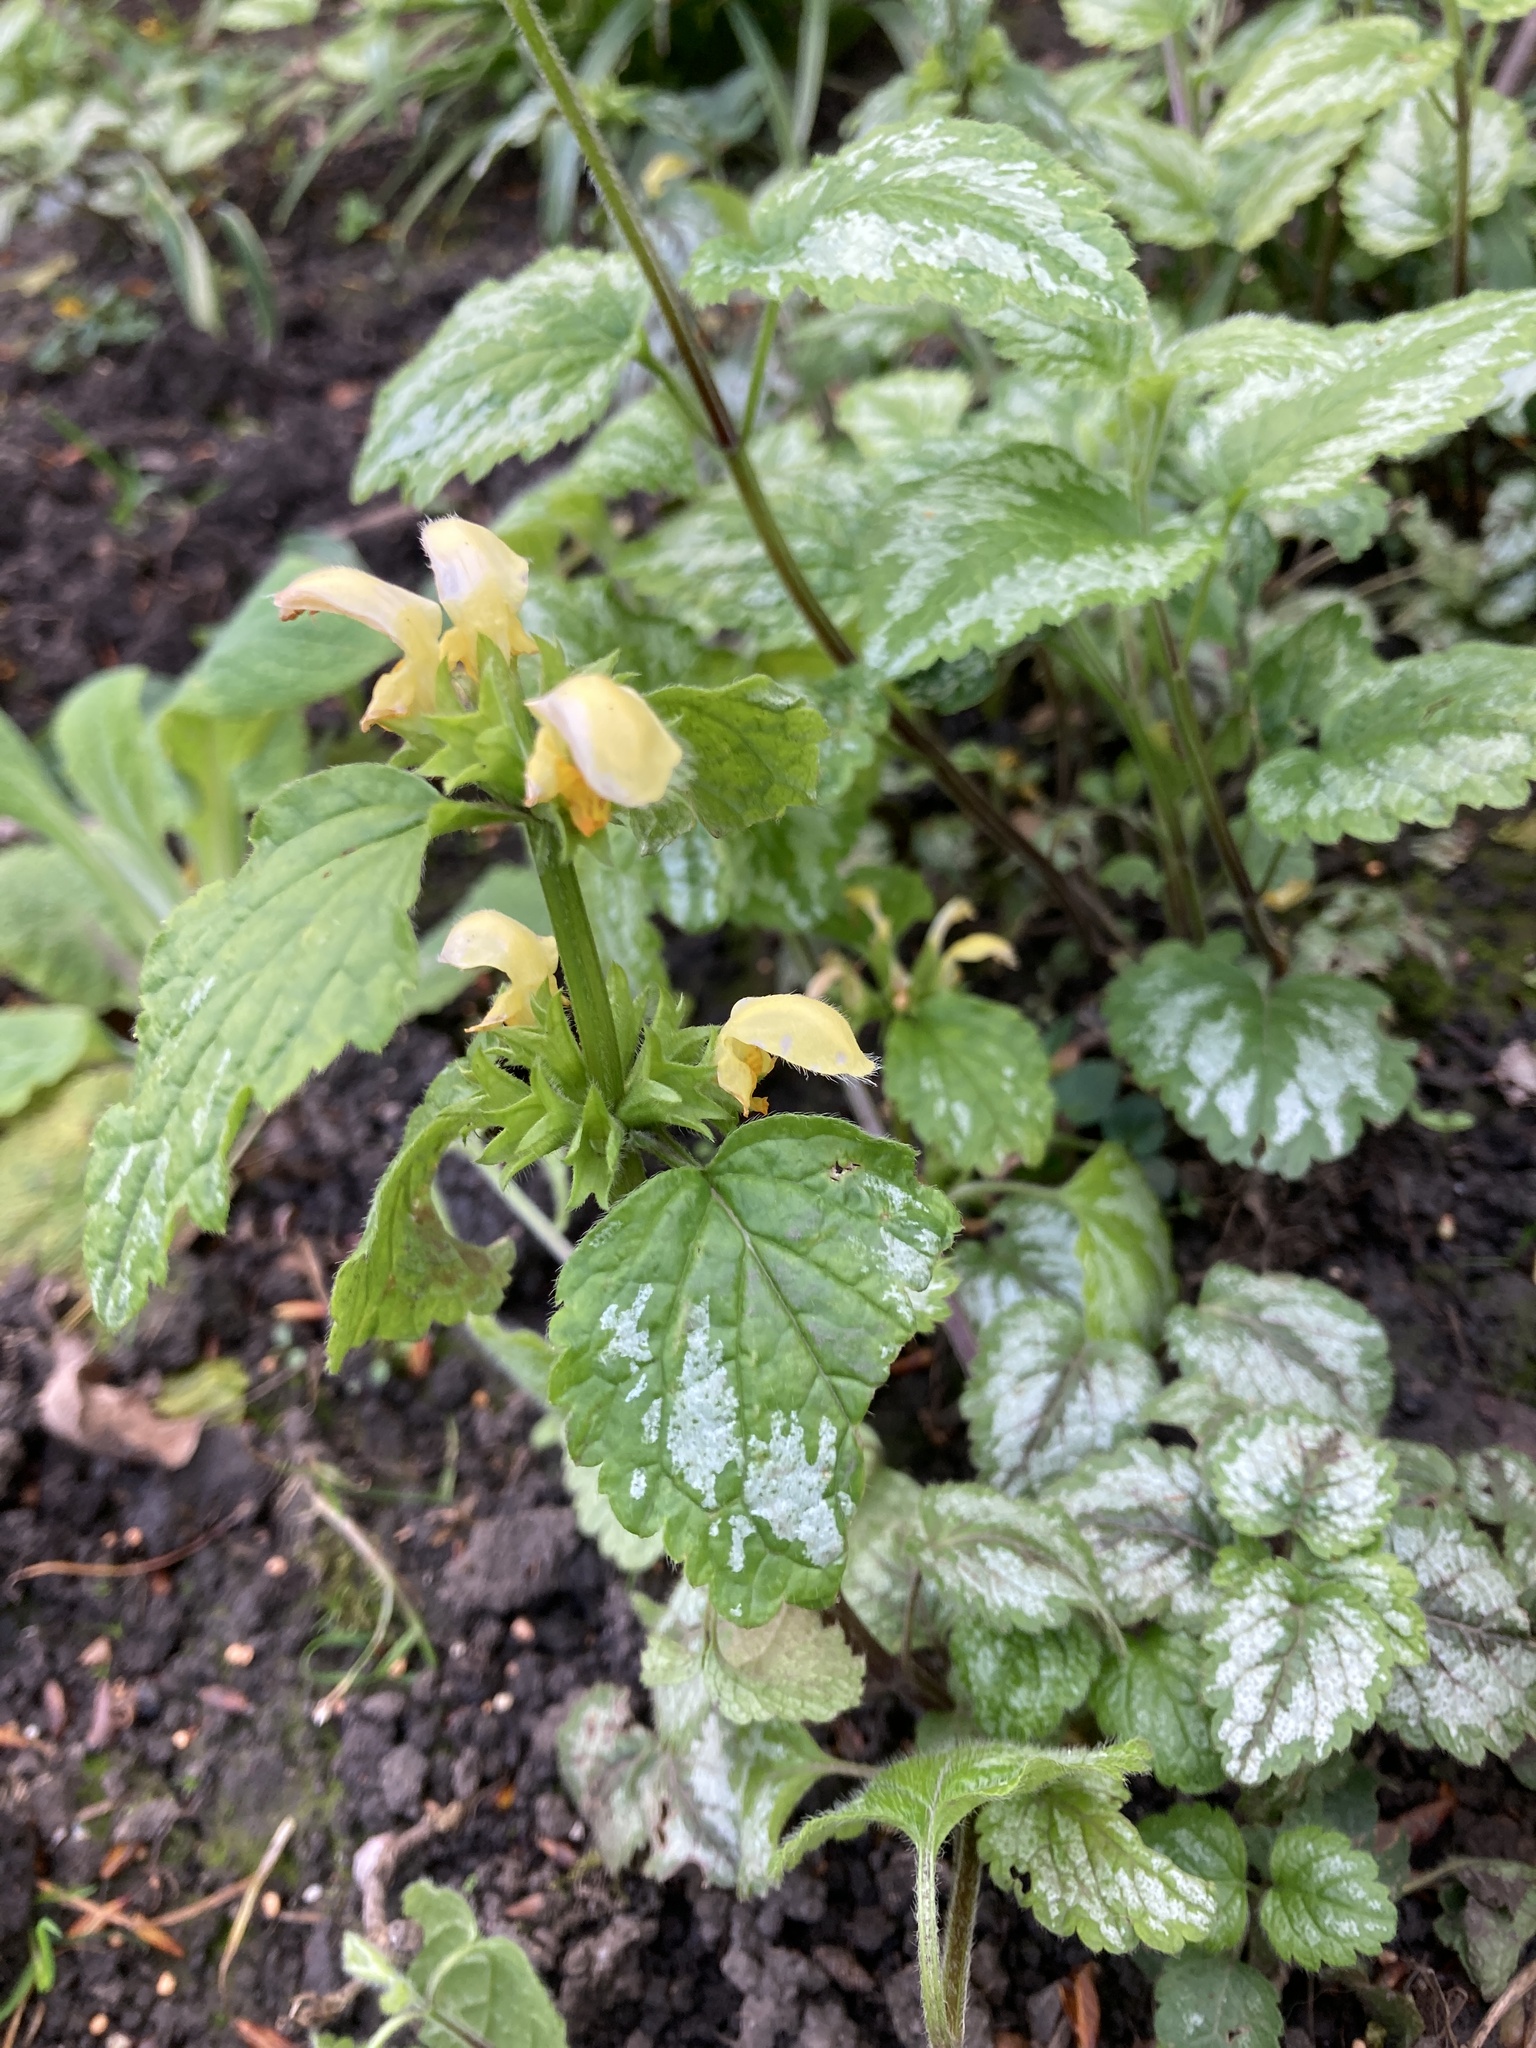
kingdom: Plantae
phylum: Tracheophyta
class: Magnoliopsida
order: Lamiales
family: Lamiaceae
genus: Lamium
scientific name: Lamium galeobdolon
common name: Yellow archangel
